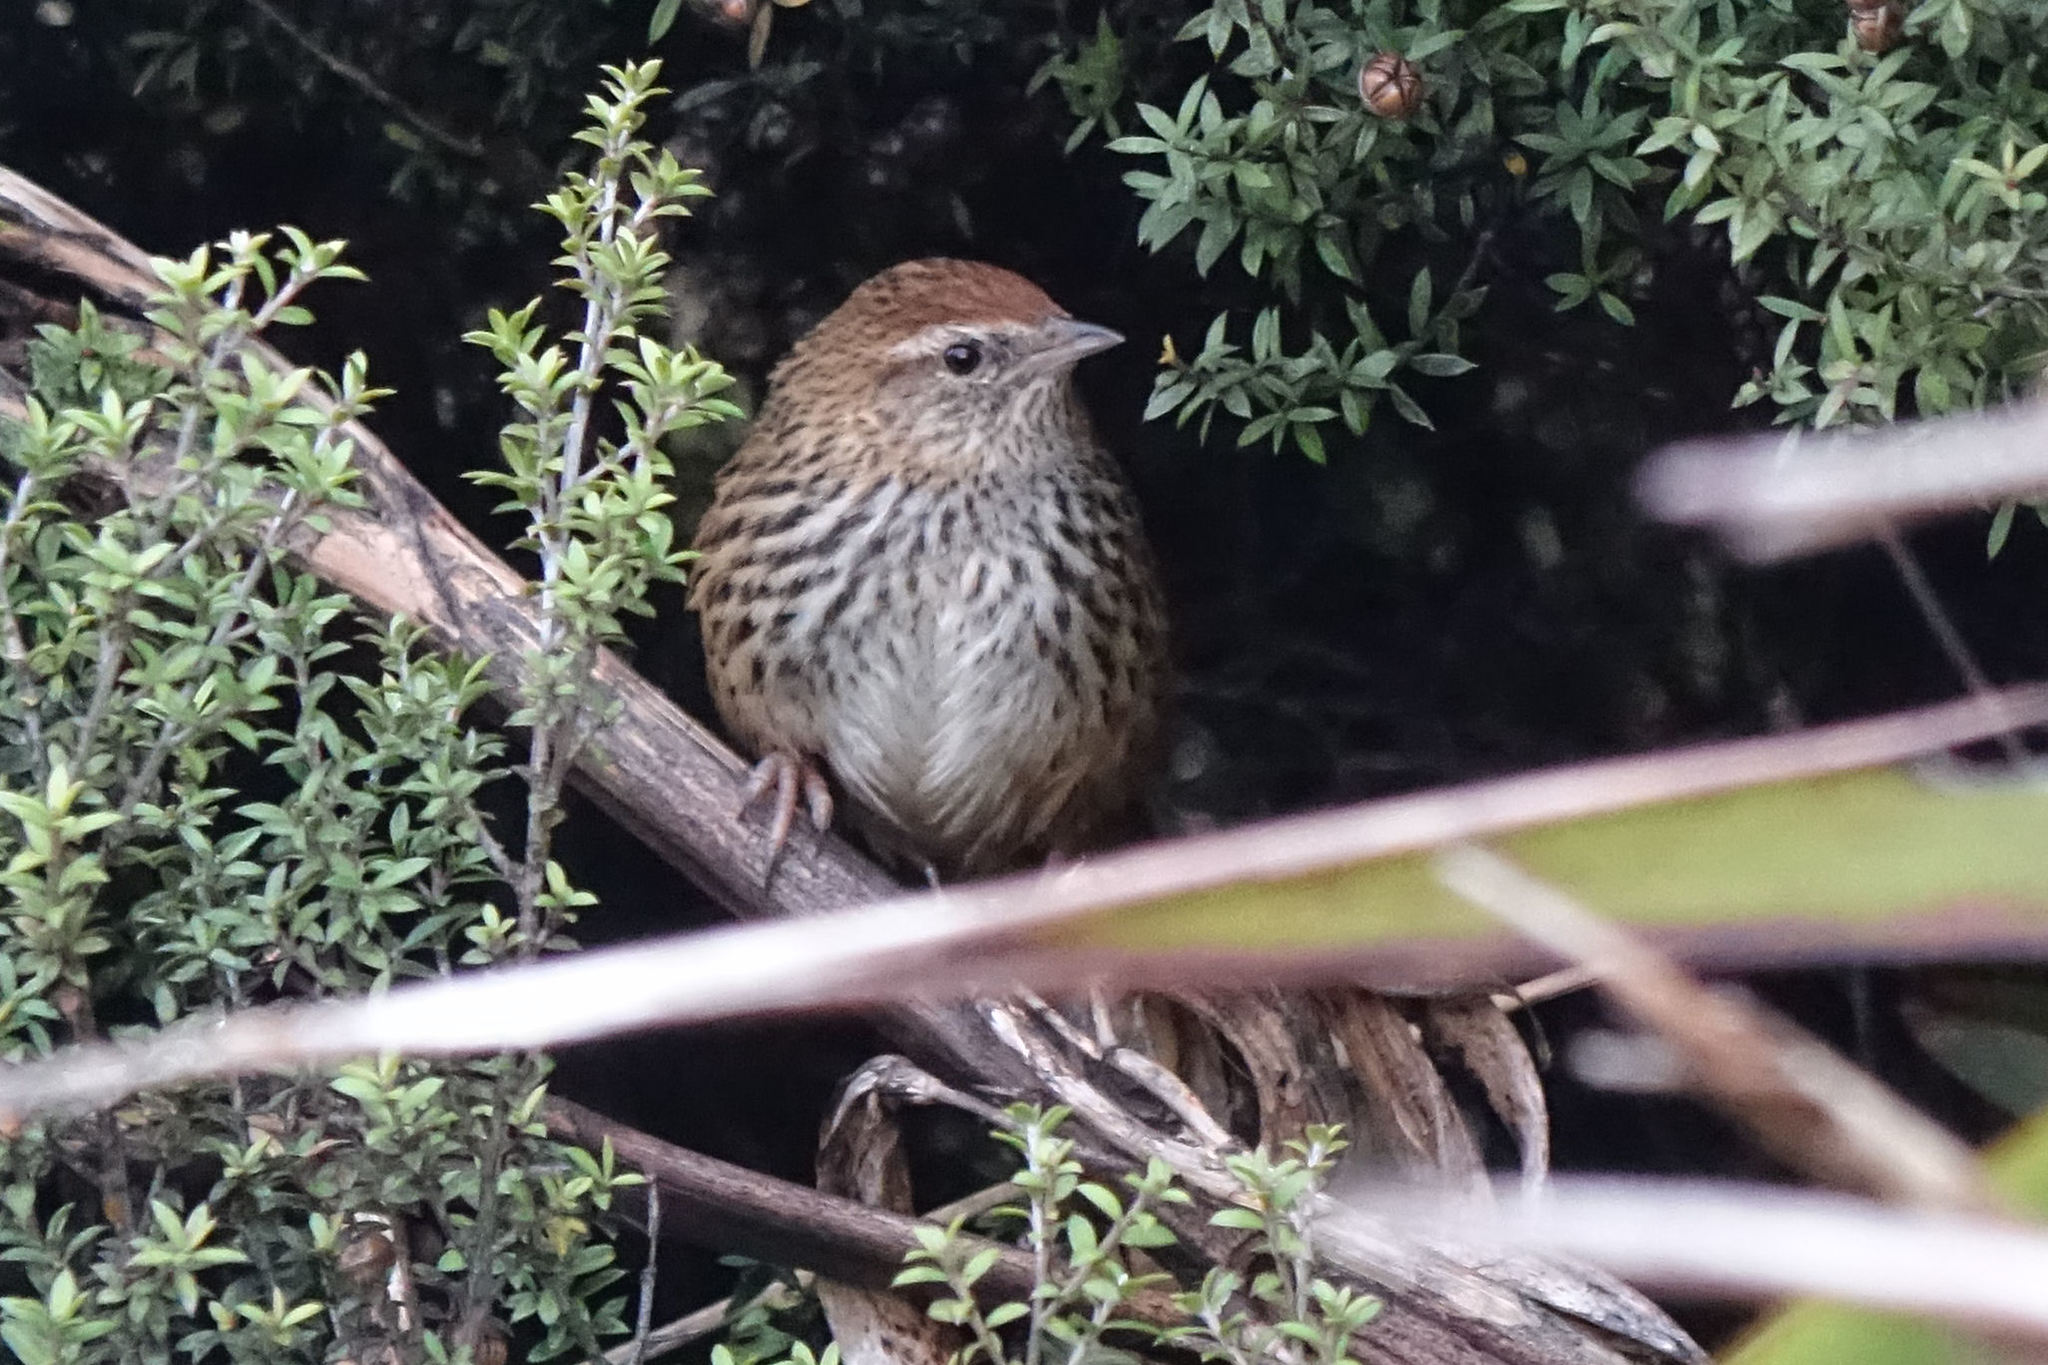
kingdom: Animalia
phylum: Chordata
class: Aves
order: Passeriformes
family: Locustellidae
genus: Poodytes
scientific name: Poodytes punctatus
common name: New zealand fernbird
